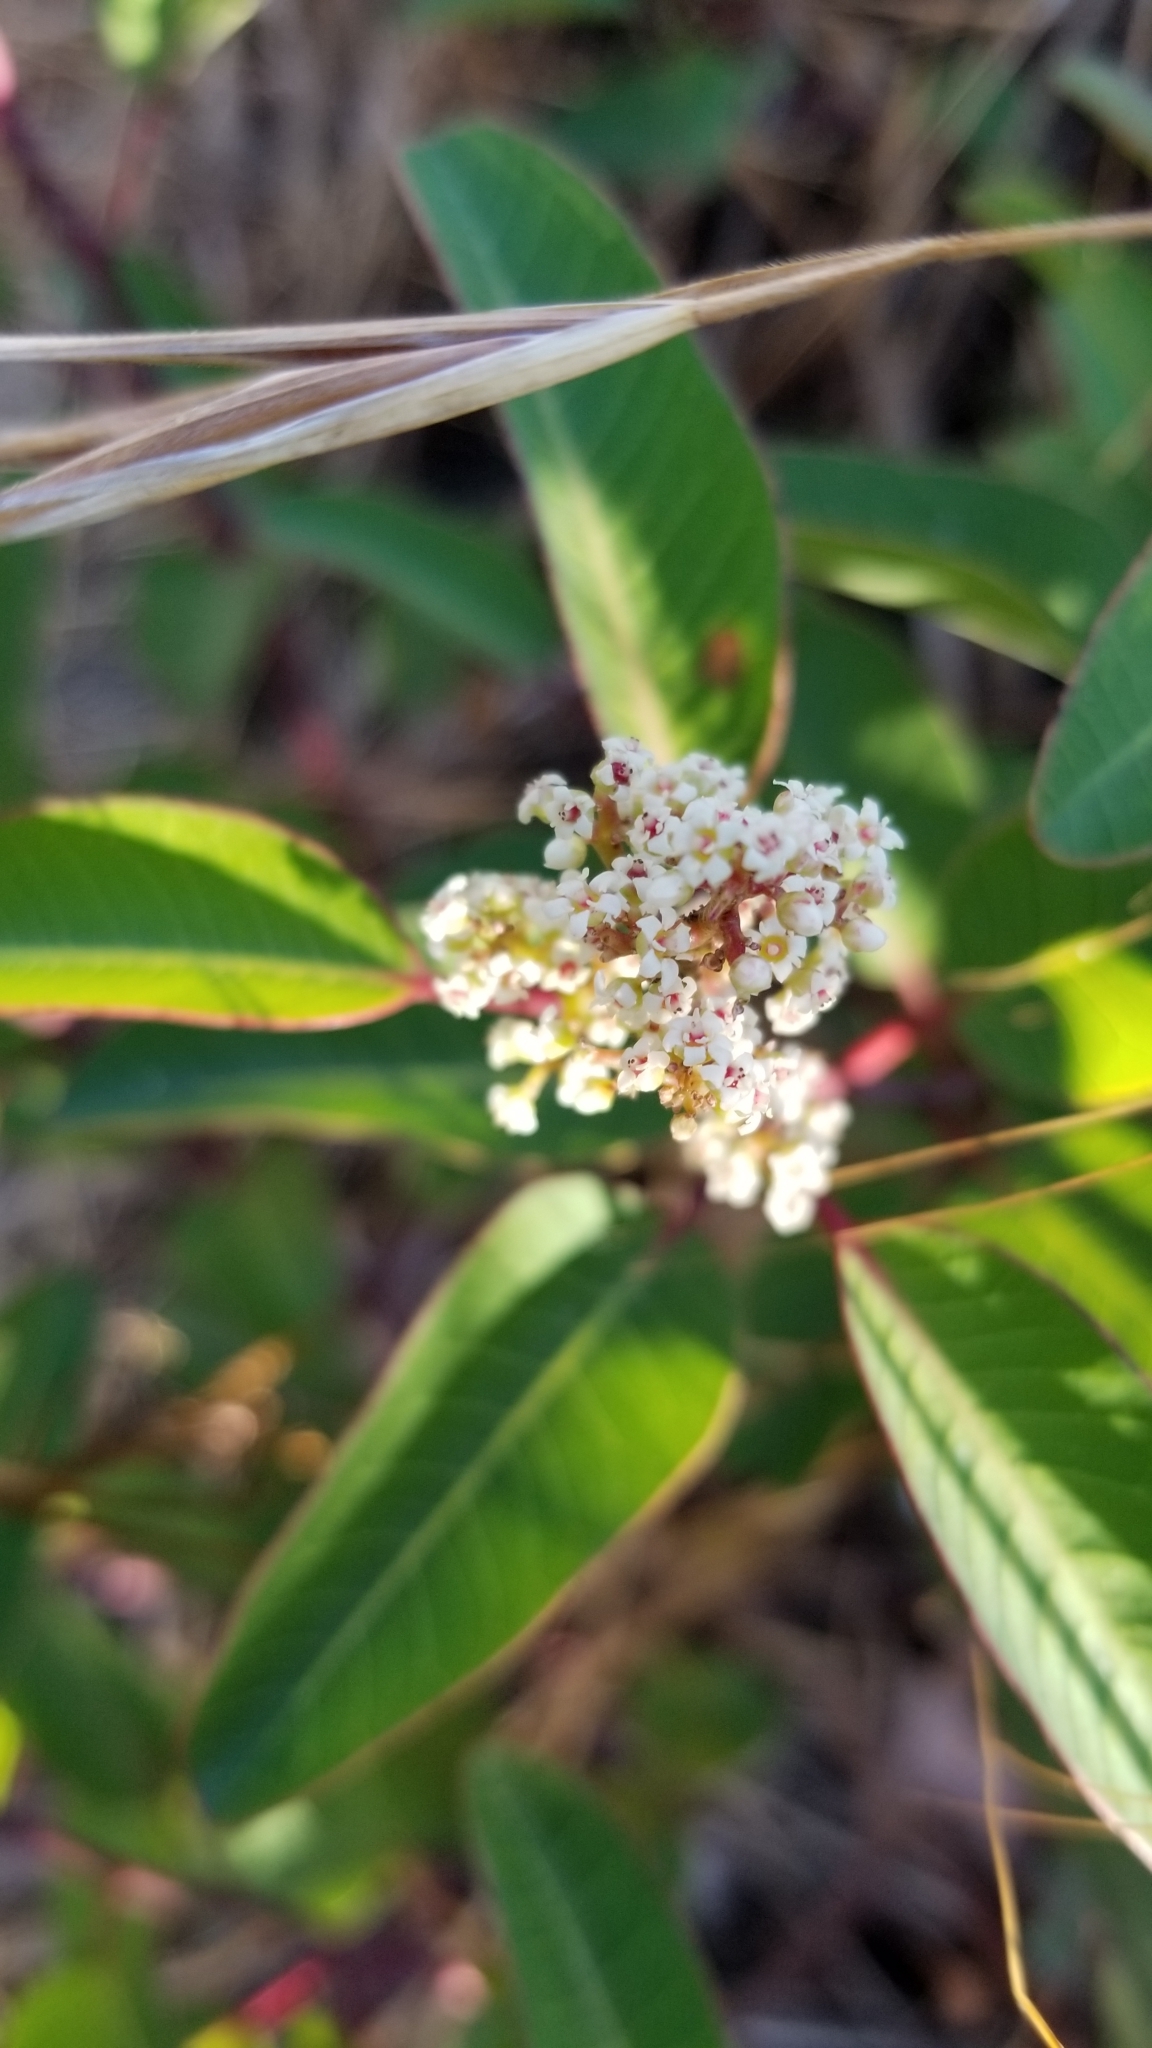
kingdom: Plantae
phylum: Tracheophyta
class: Magnoliopsida
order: Sapindales
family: Anacardiaceae
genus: Malosma
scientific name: Malosma laurina
